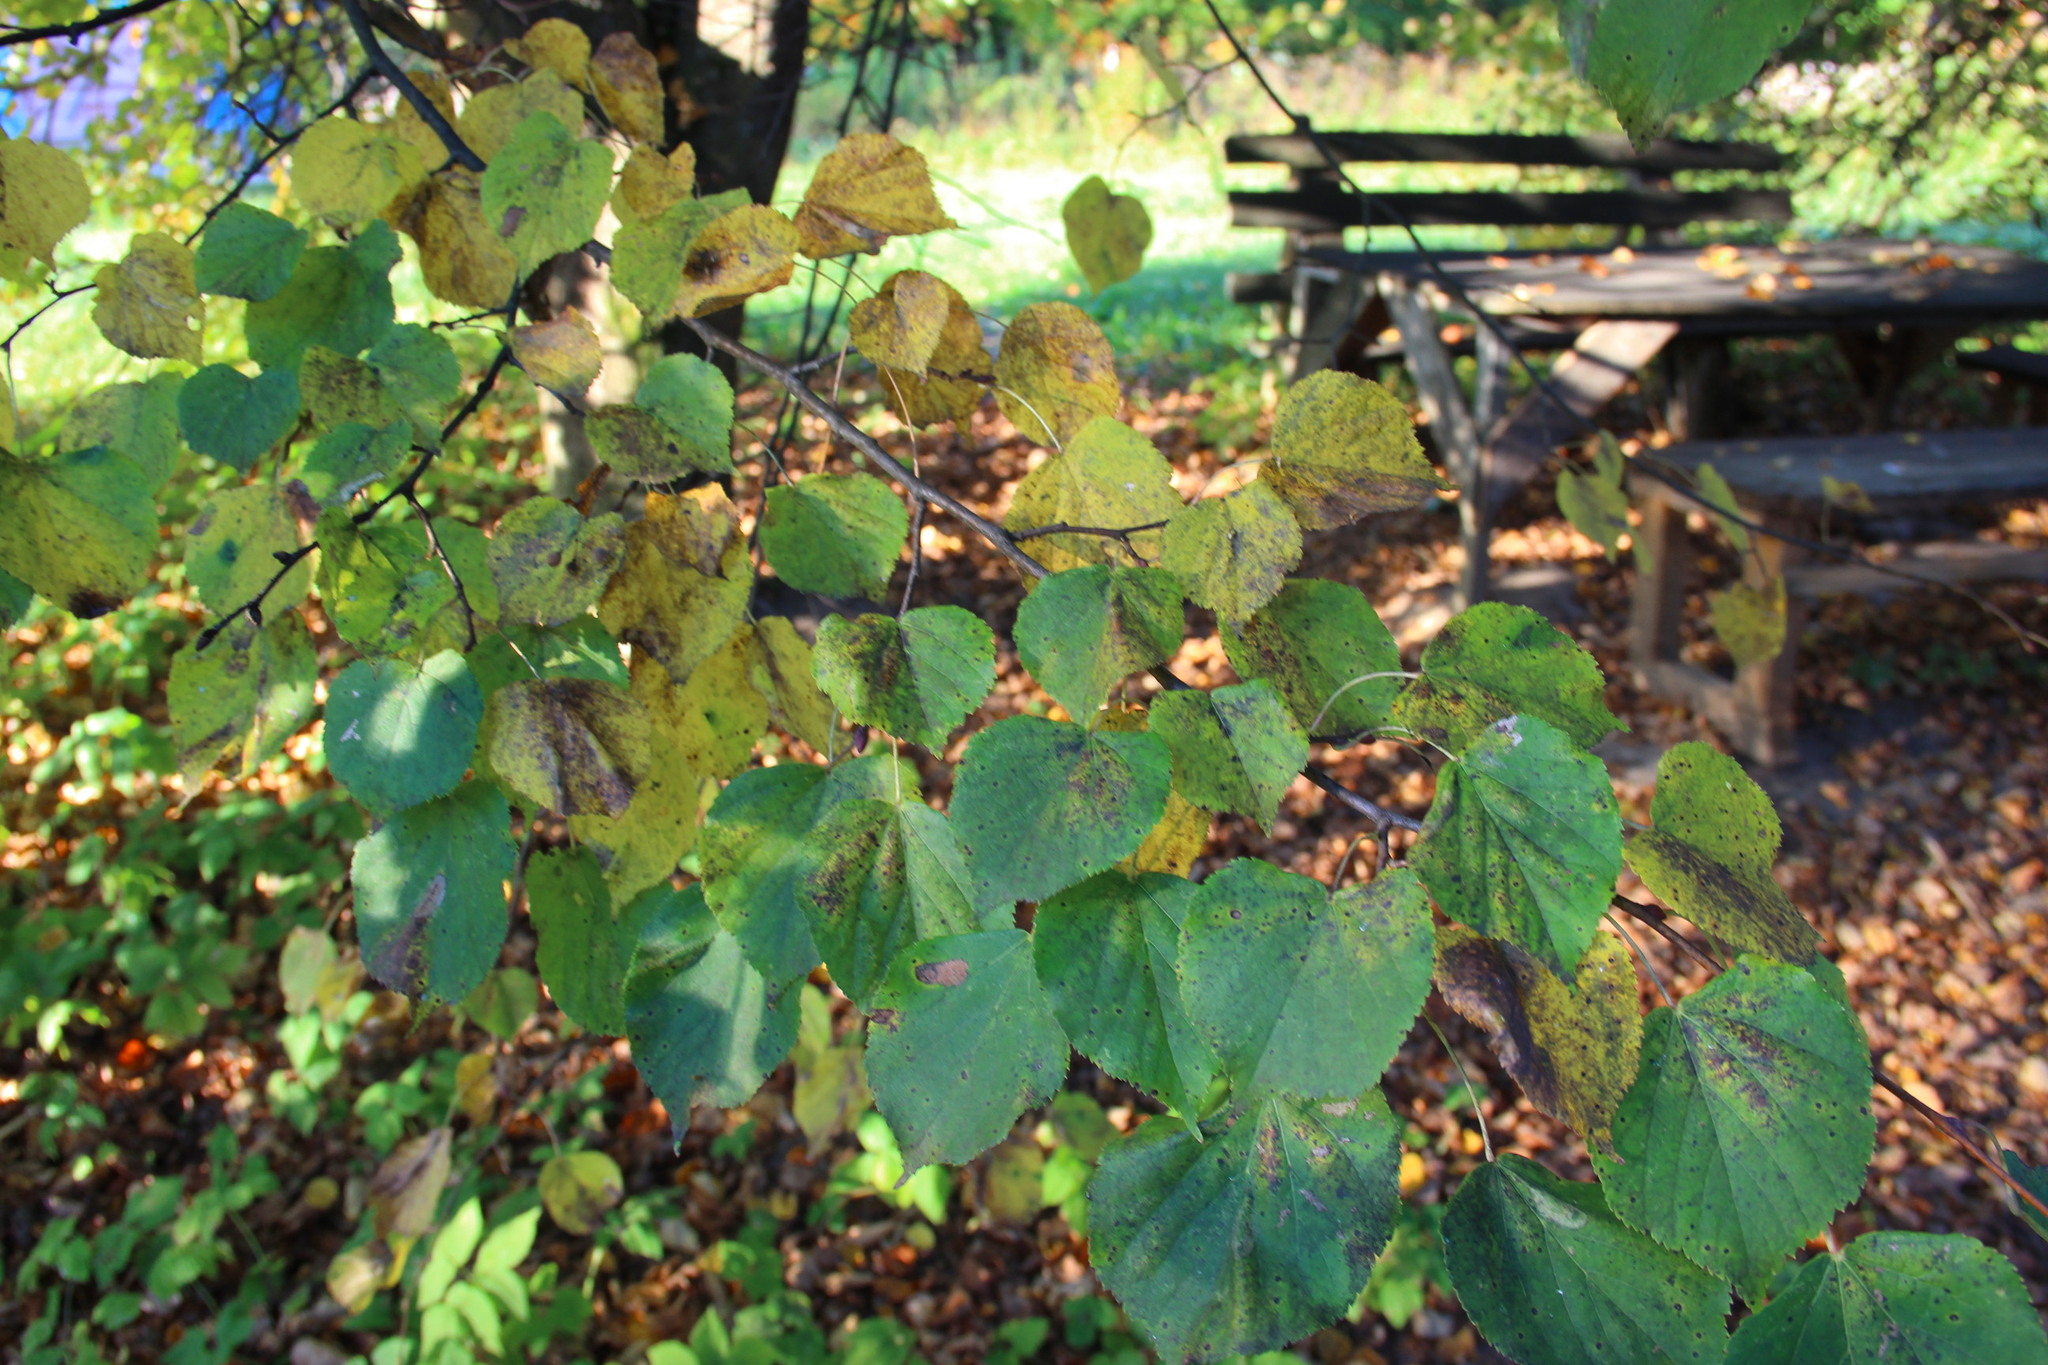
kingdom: Plantae
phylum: Tracheophyta
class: Magnoliopsida
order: Malvales
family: Malvaceae
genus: Tilia
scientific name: Tilia cordata
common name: Small-leaved lime
